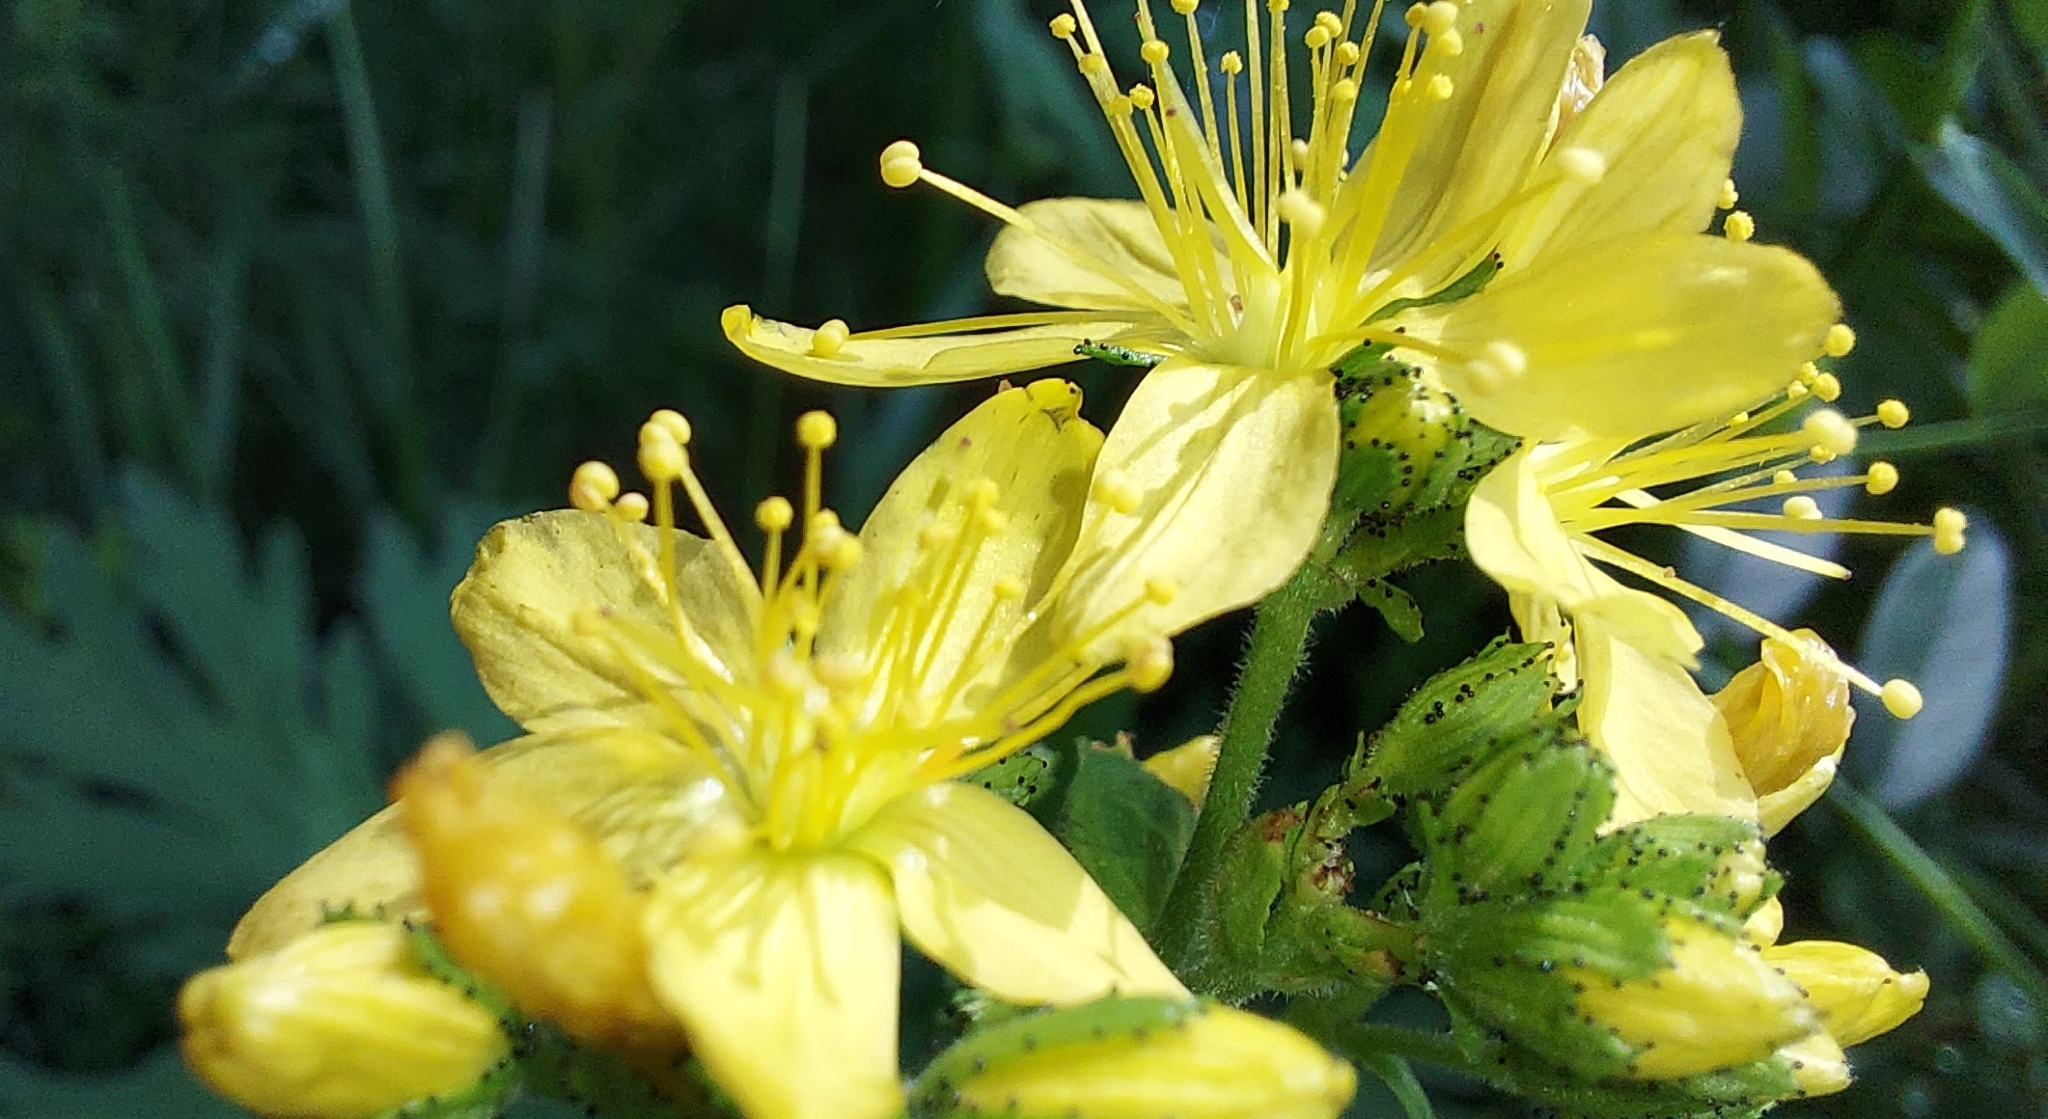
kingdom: Plantae
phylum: Tracheophyta
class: Magnoliopsida
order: Malpighiales
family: Hypericaceae
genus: Hypericum
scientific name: Hypericum hirsutum
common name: Hairy st. john's-wort
